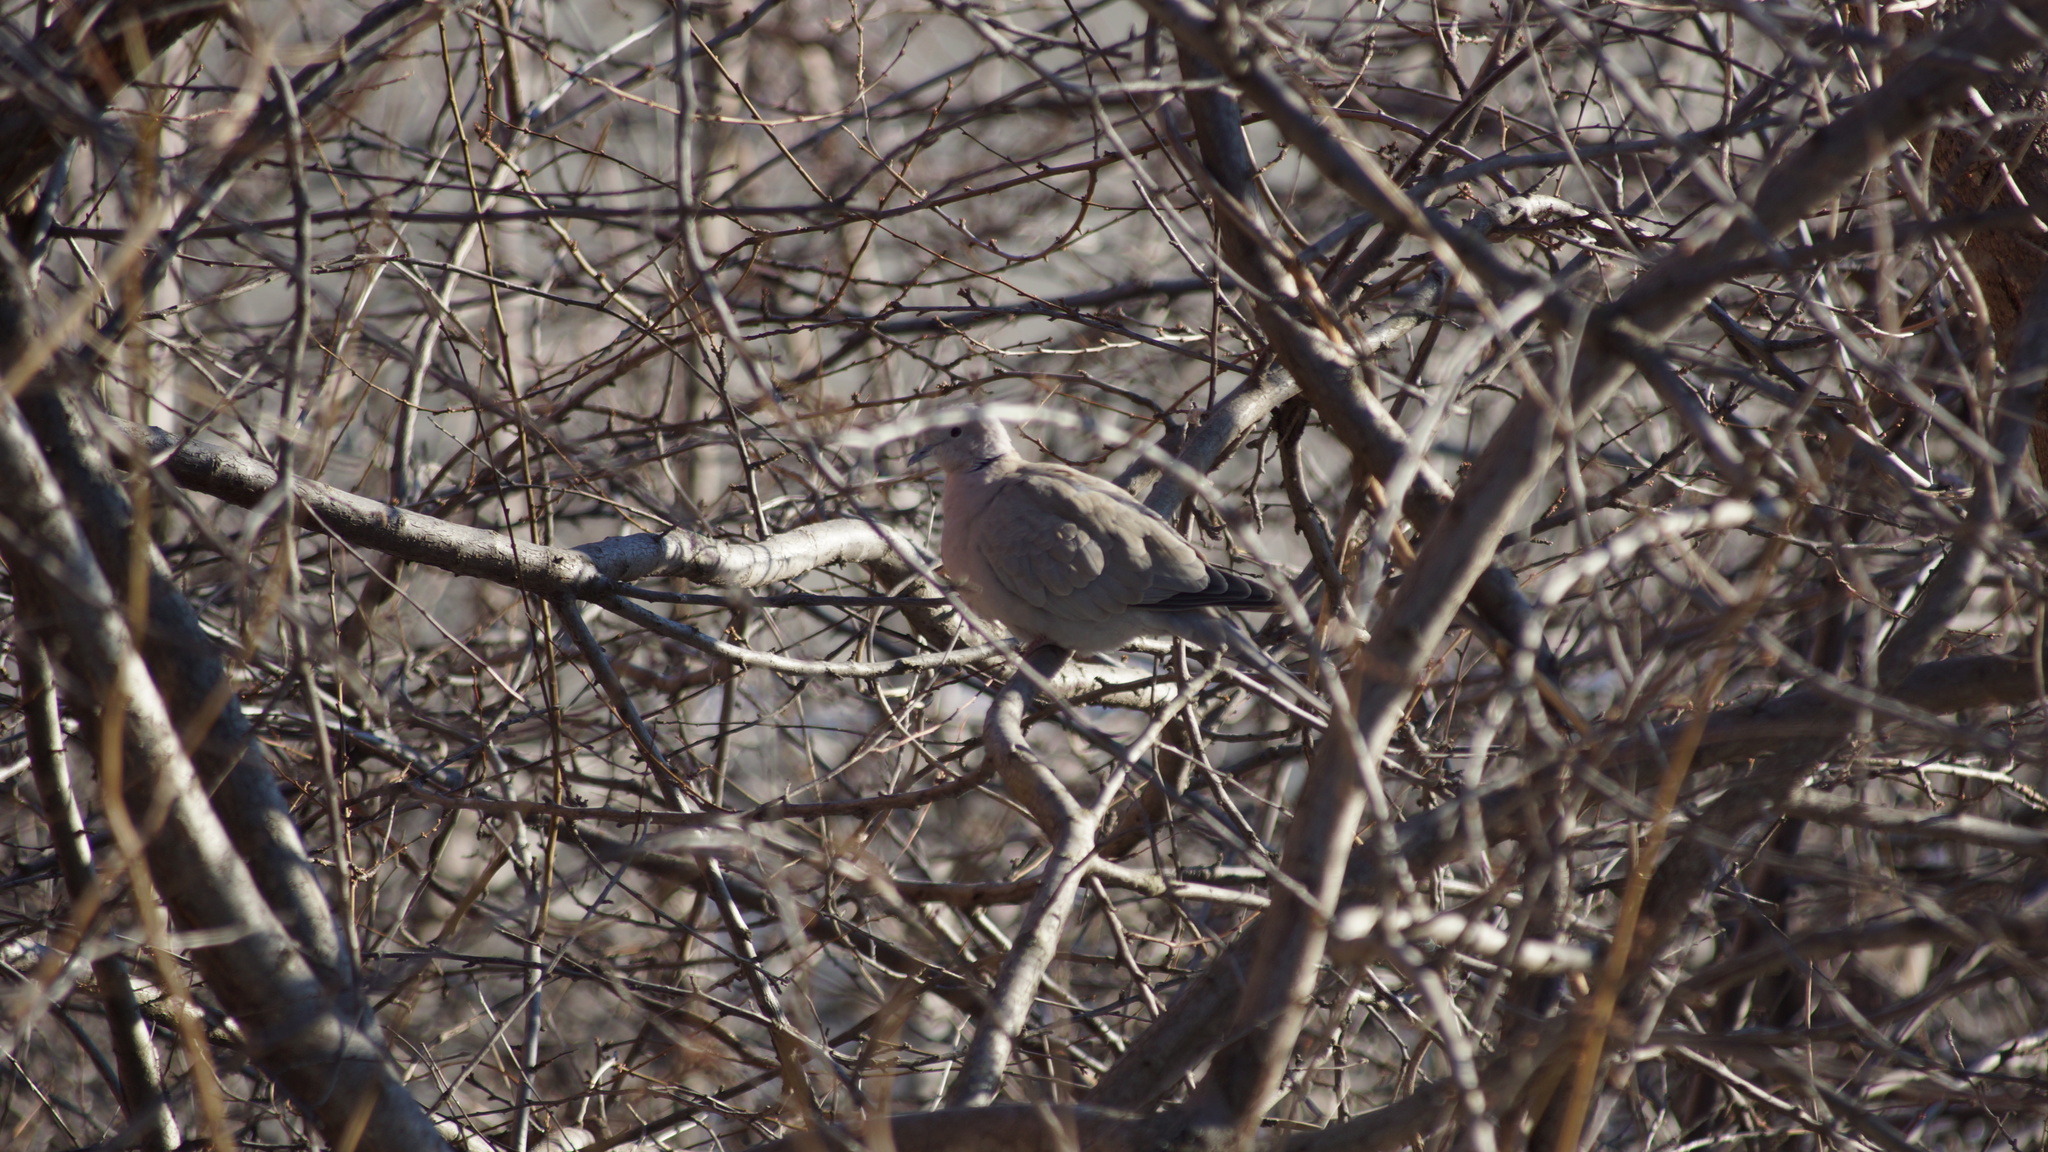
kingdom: Animalia
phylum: Chordata
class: Aves
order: Columbiformes
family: Columbidae
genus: Streptopelia
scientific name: Streptopelia decaocto
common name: Eurasian collared dove
